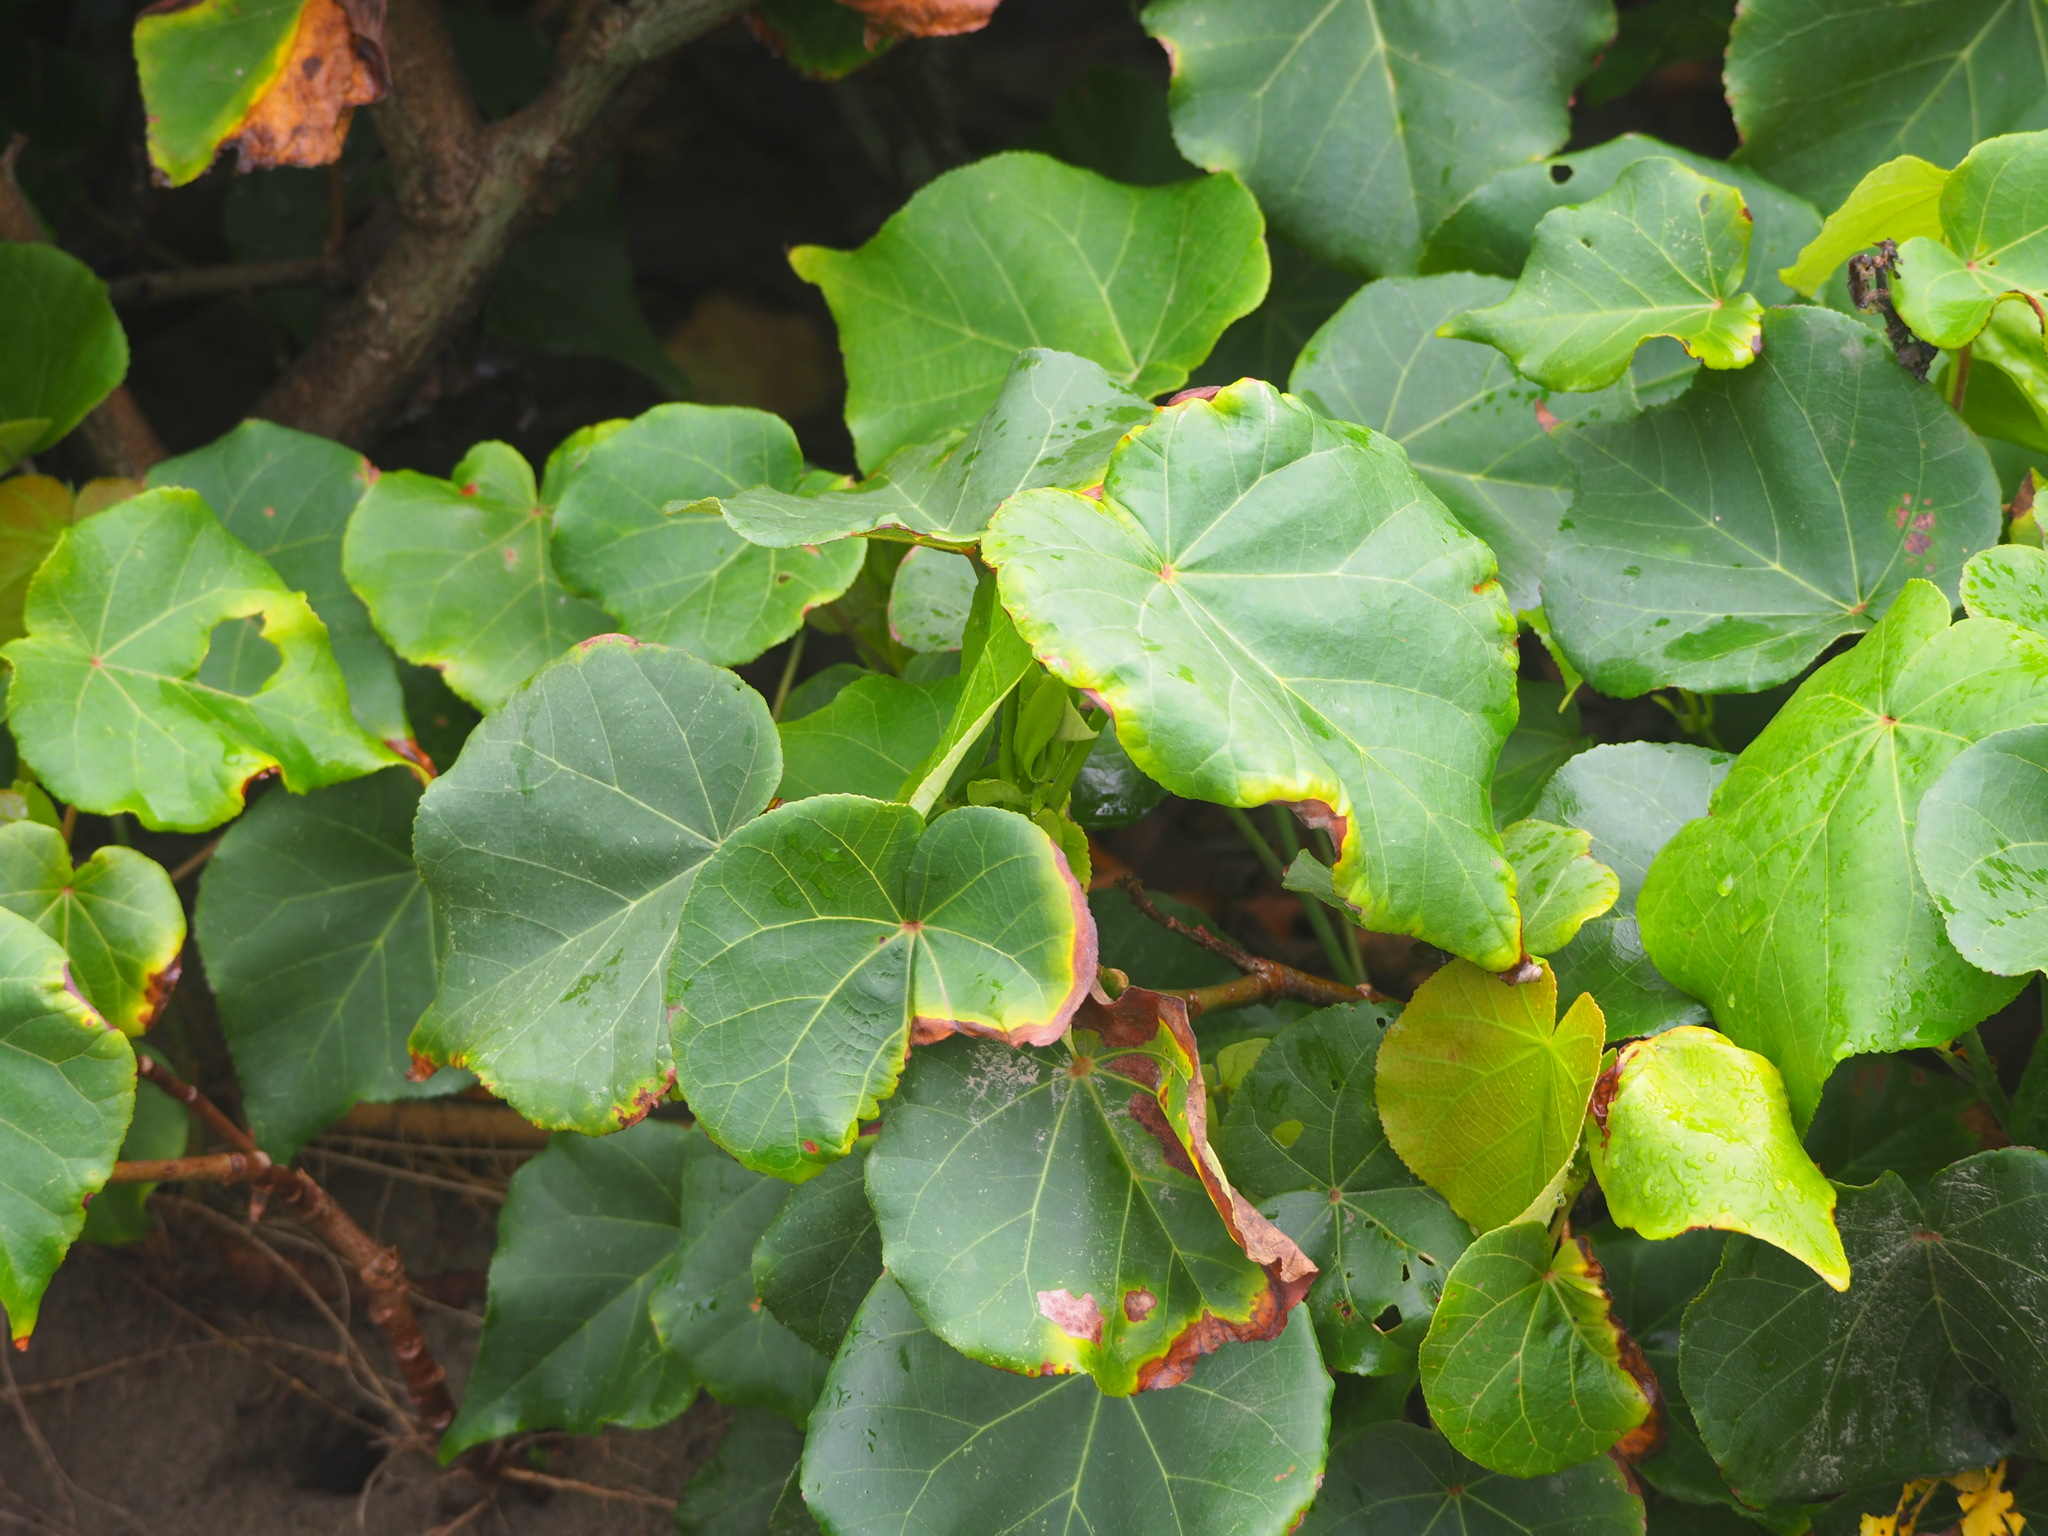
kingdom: Plantae
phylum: Tracheophyta
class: Magnoliopsida
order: Malvales
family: Malvaceae
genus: Talipariti
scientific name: Talipariti tiliaceum
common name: Sea hibiscus
